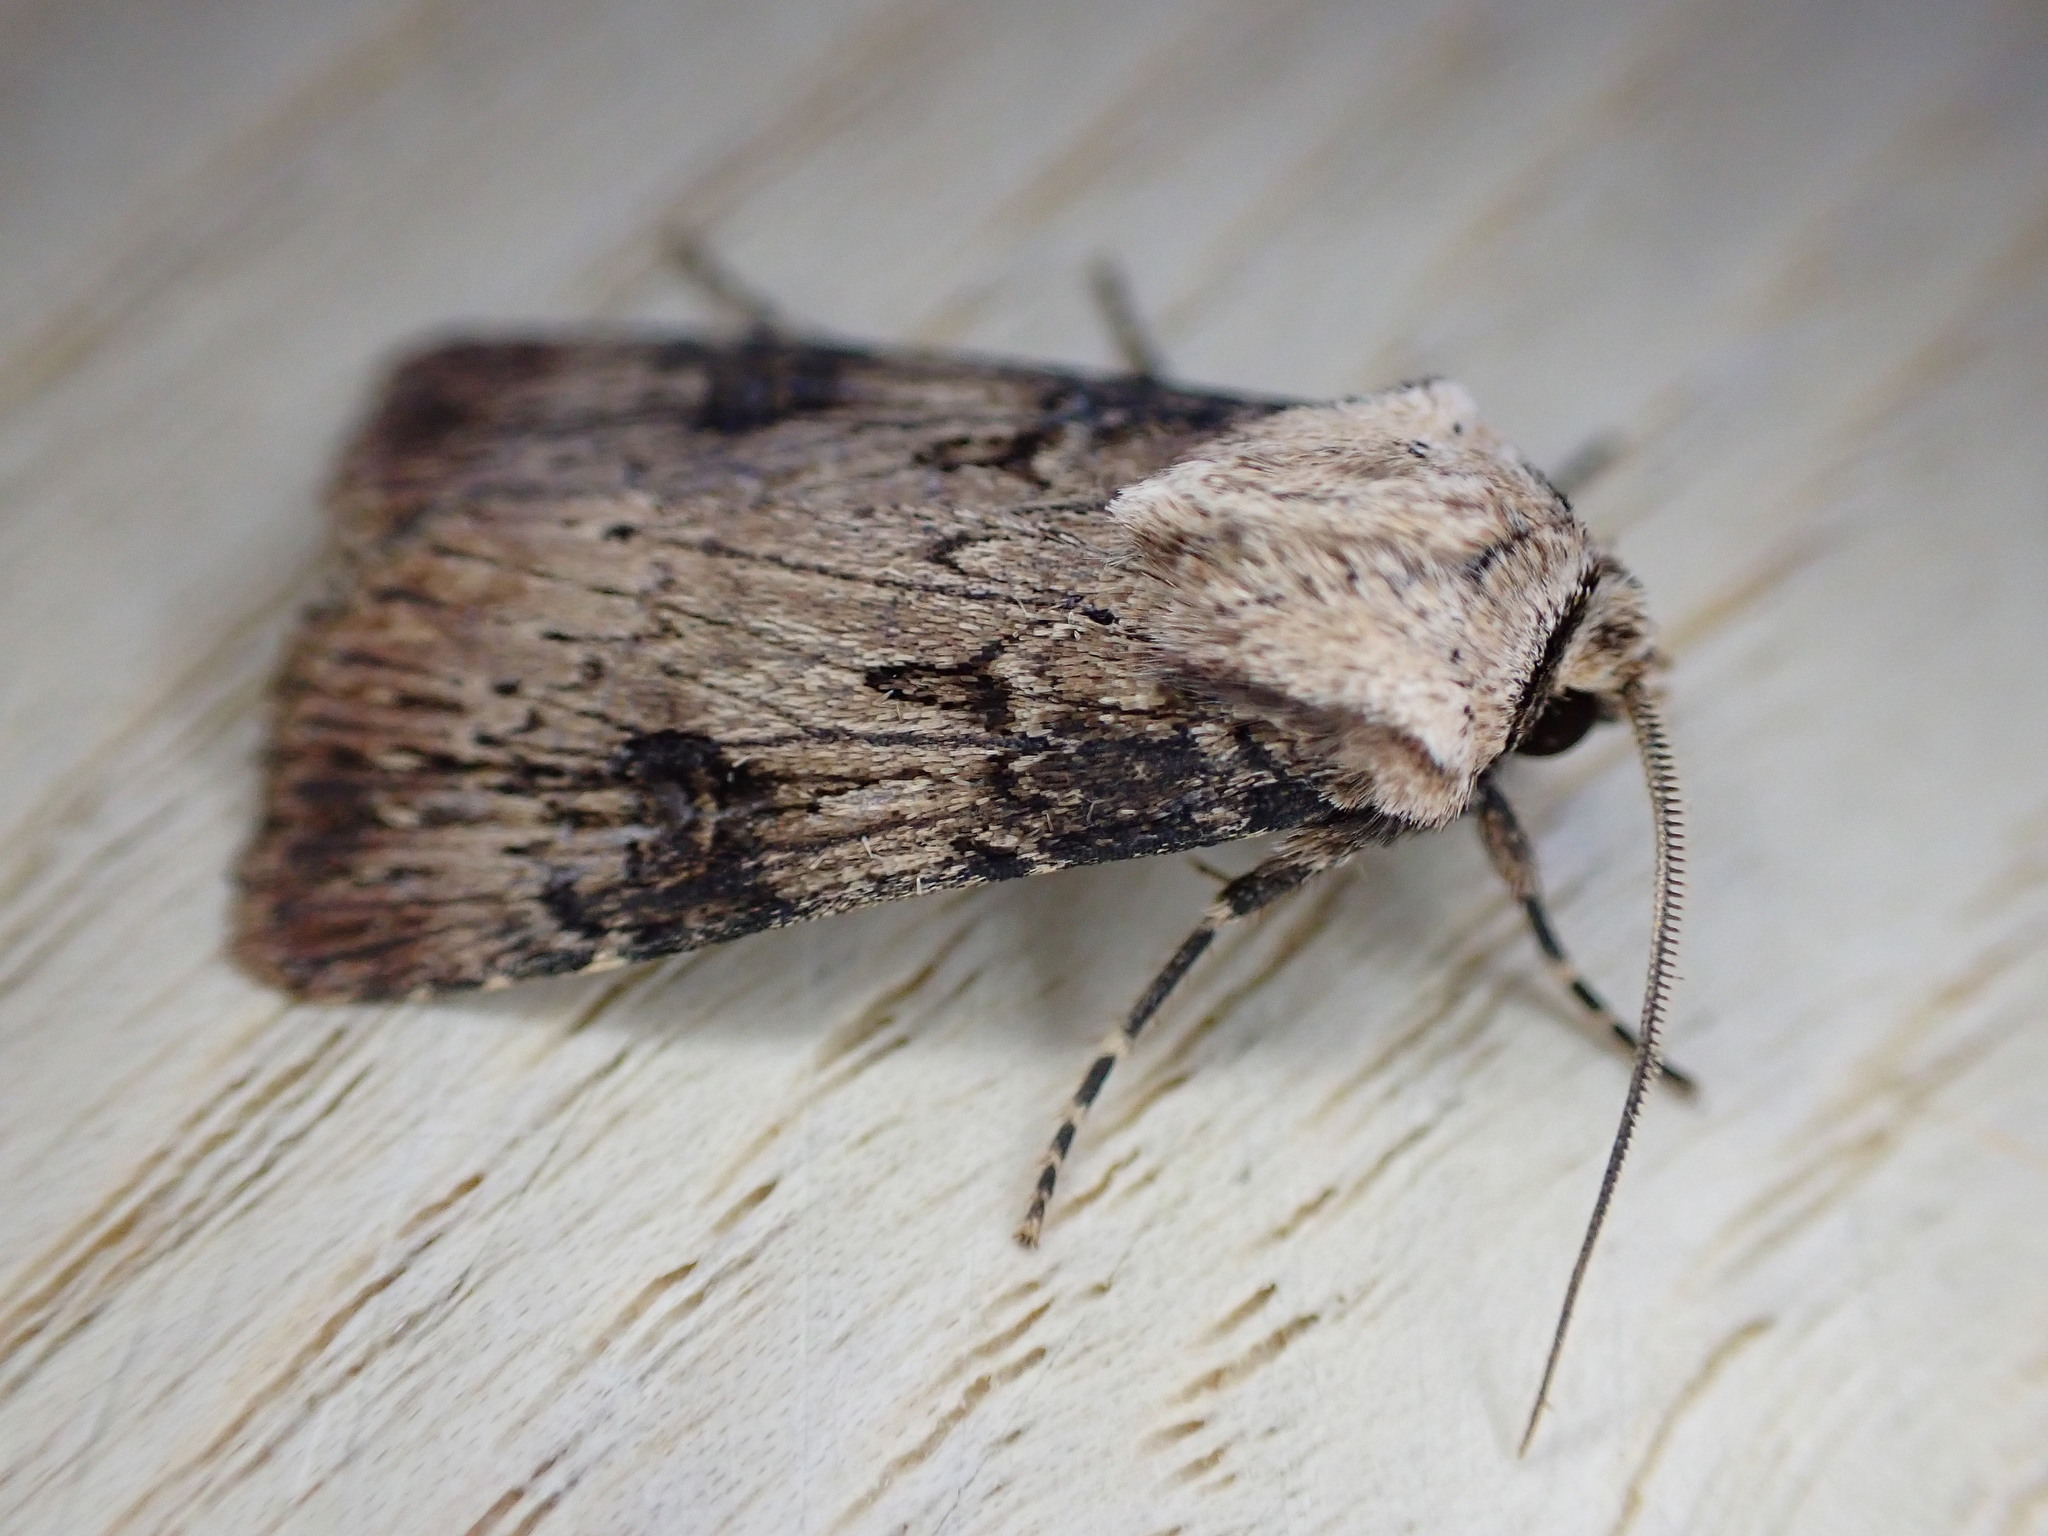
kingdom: Animalia
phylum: Arthropoda
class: Insecta
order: Lepidoptera
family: Noctuidae
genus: Agrotis
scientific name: Agrotis puta
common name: Shuttle-shaped dart
